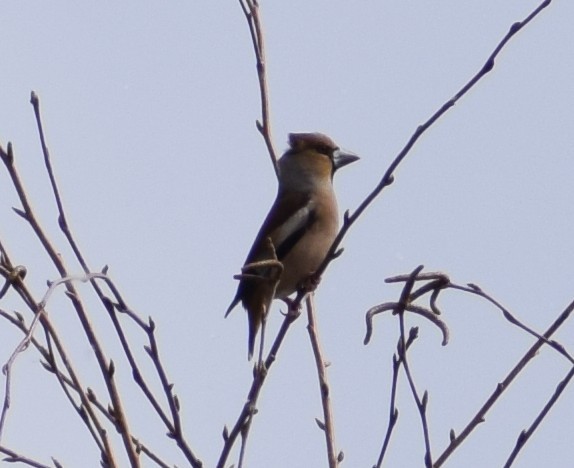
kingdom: Animalia
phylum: Chordata
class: Aves
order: Passeriformes
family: Fringillidae
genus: Coccothraustes
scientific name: Coccothraustes coccothraustes
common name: Hawfinch
